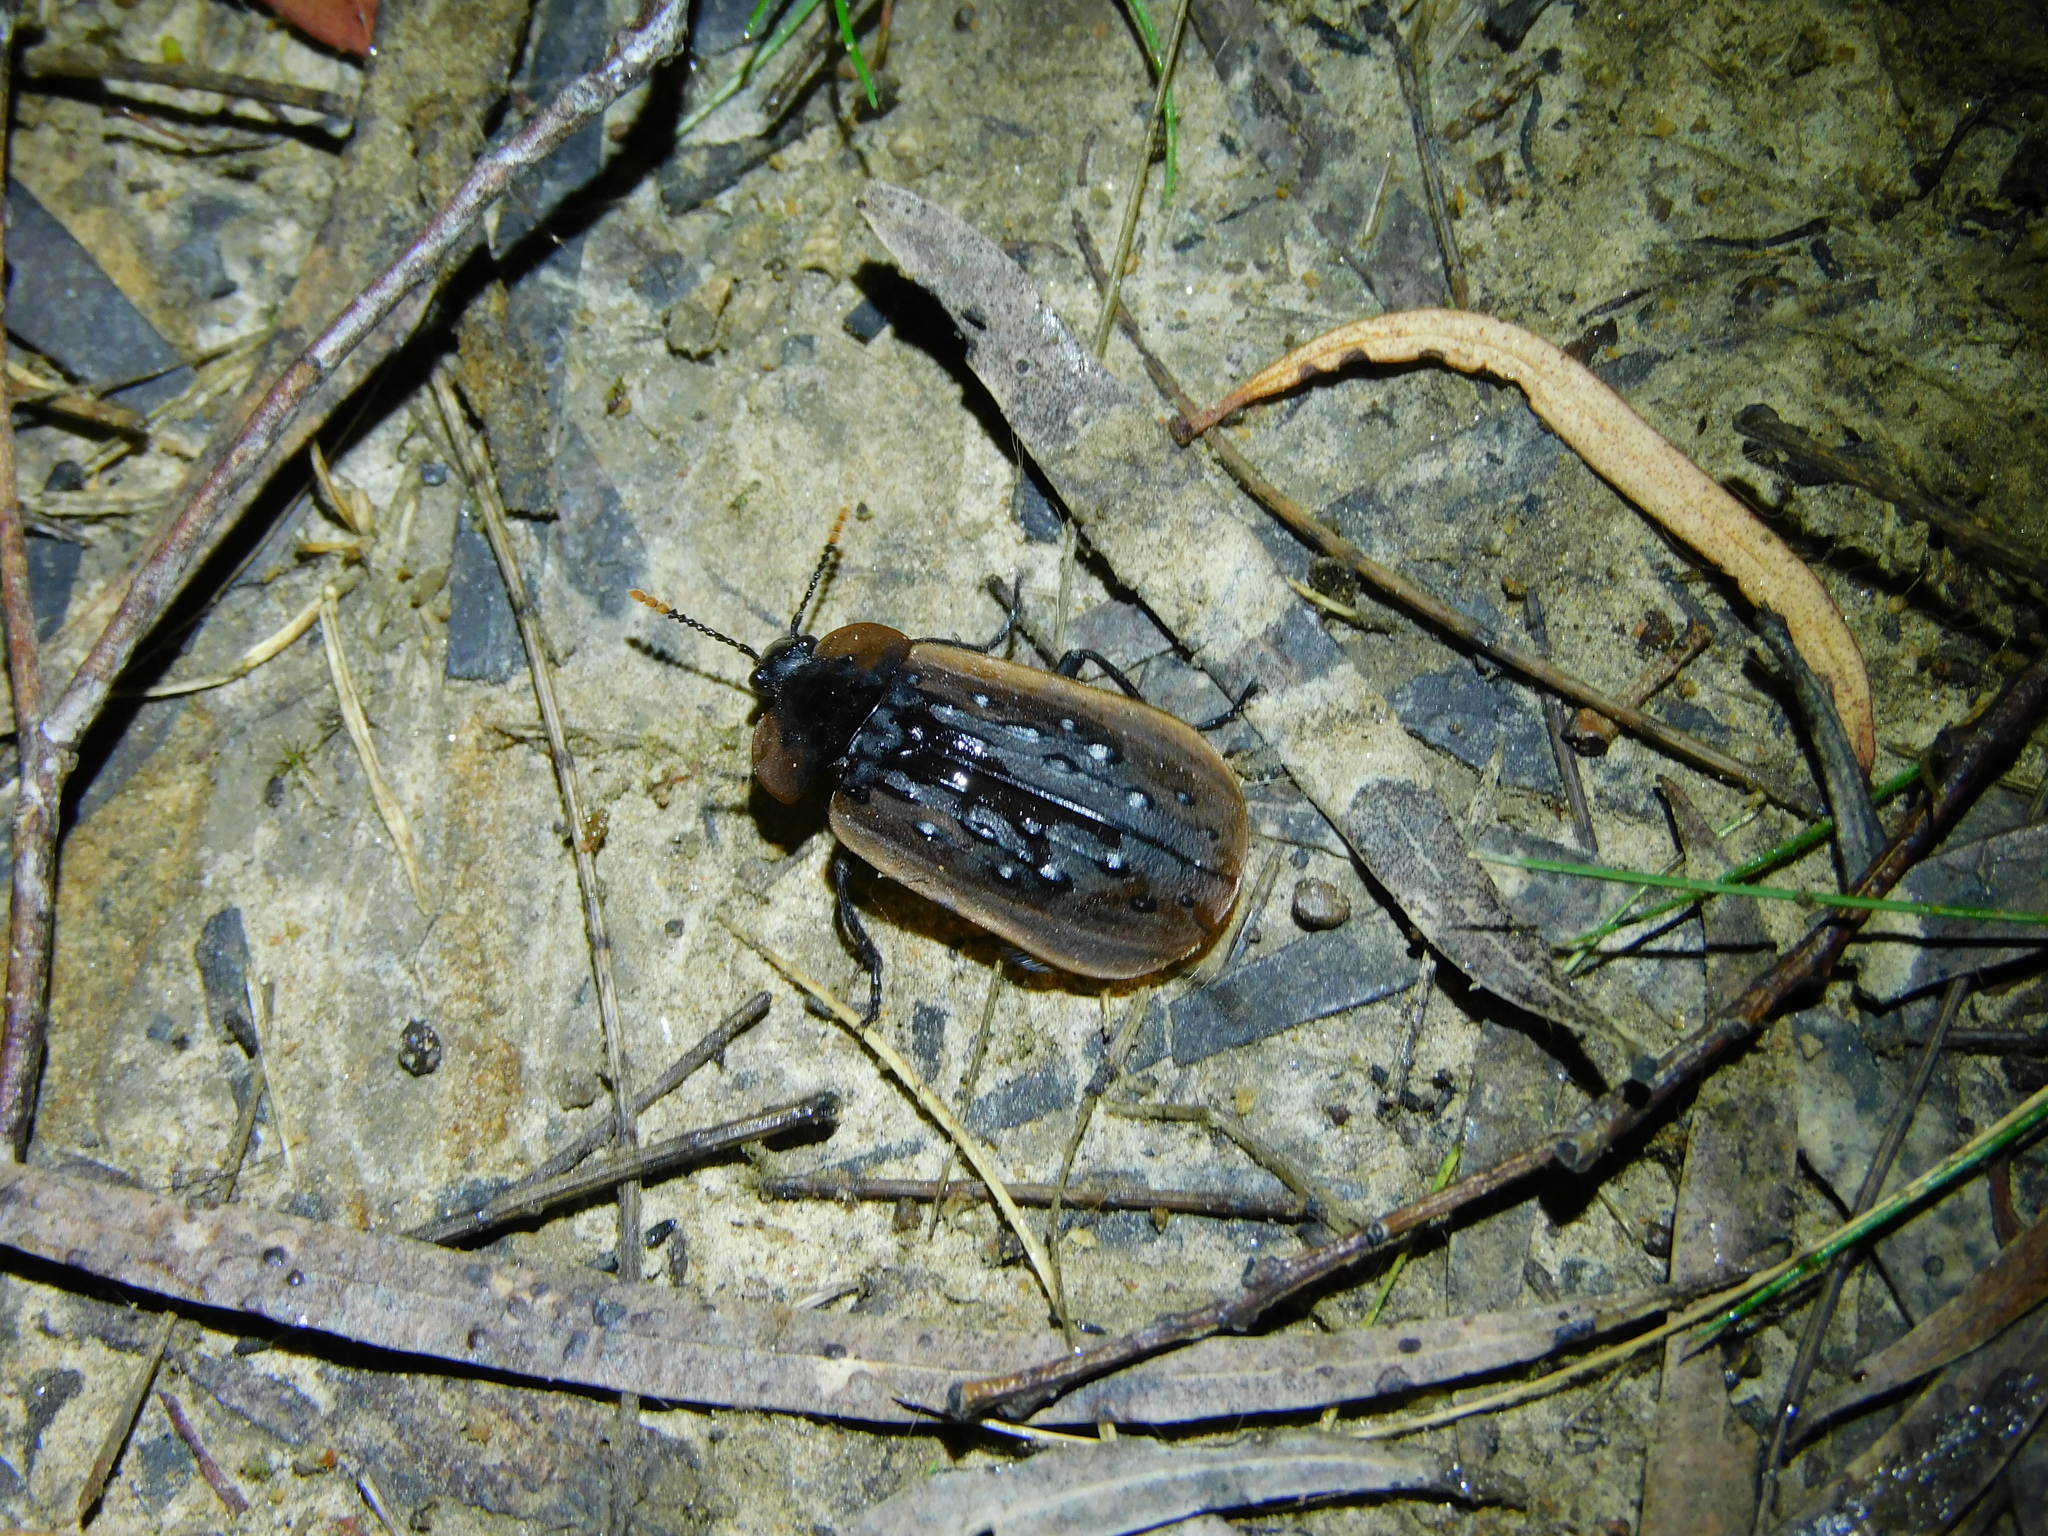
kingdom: Animalia
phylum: Arthropoda
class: Insecta
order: Coleoptera
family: Staphylinidae
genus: Ptomaphila
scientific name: Ptomaphila lacrymosa
